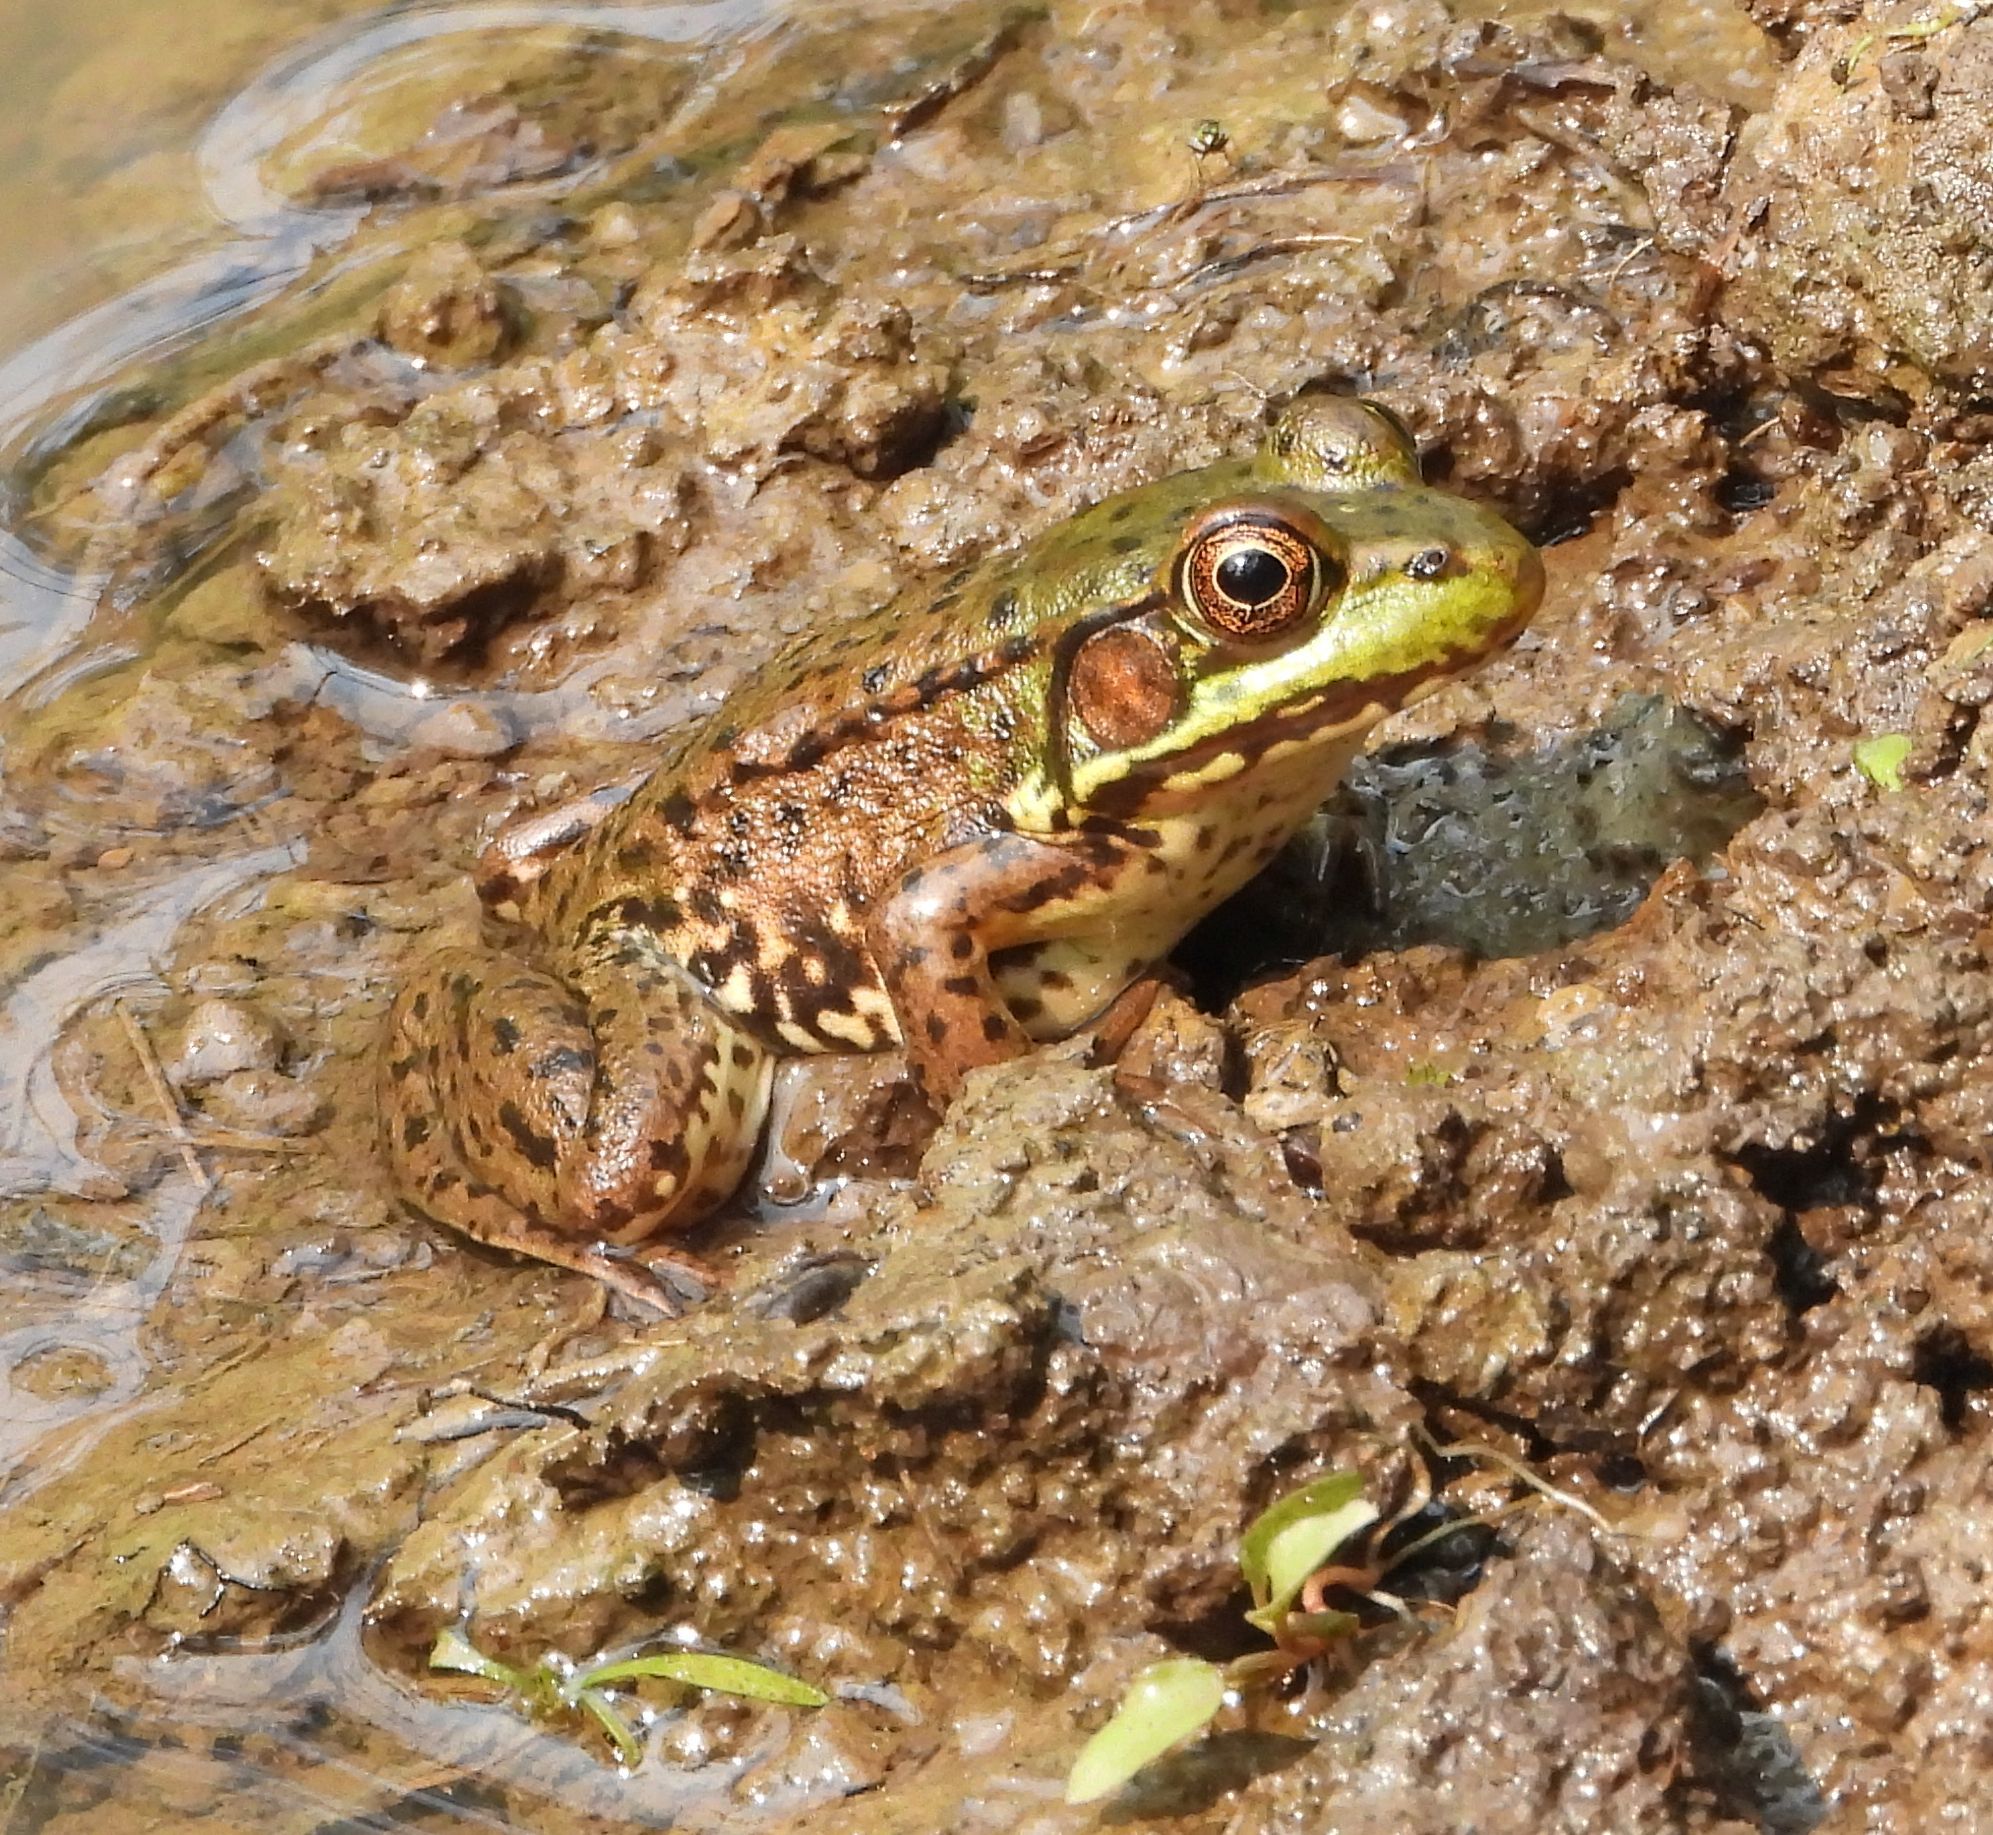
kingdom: Animalia
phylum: Chordata
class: Amphibia
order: Anura
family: Ranidae
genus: Lithobates
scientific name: Lithobates clamitans
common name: Green frog
